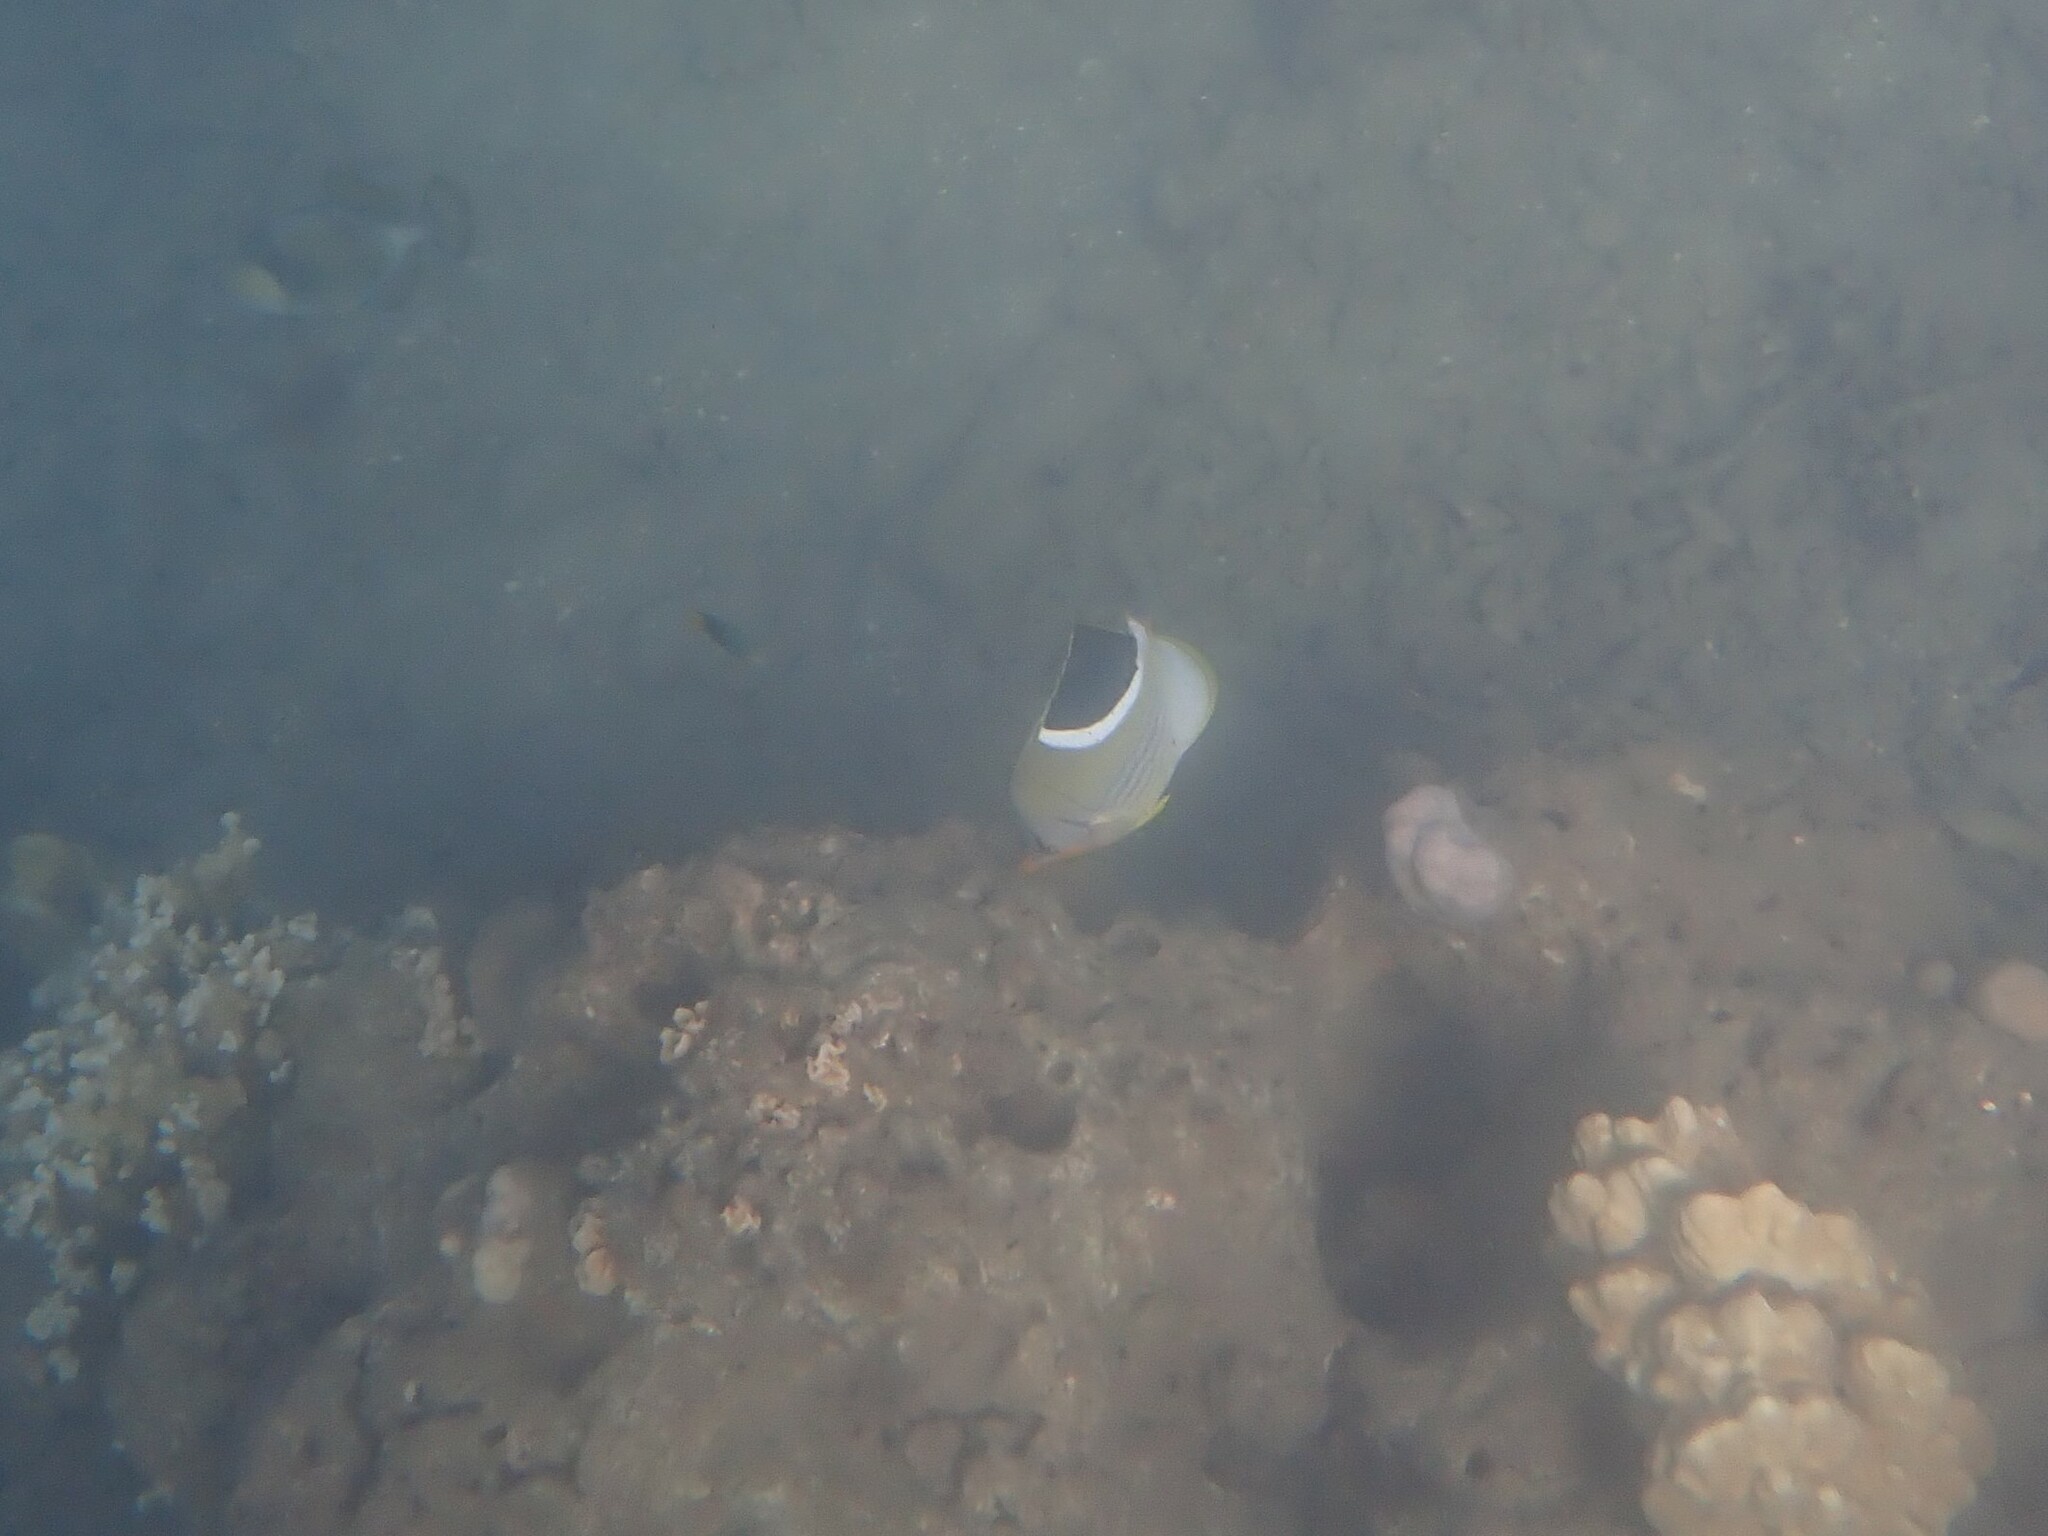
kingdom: Animalia
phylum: Chordata
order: Perciformes
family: Chaetodontidae
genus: Chaetodon
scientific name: Chaetodon ephippium
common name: Saddled butterflyfish
